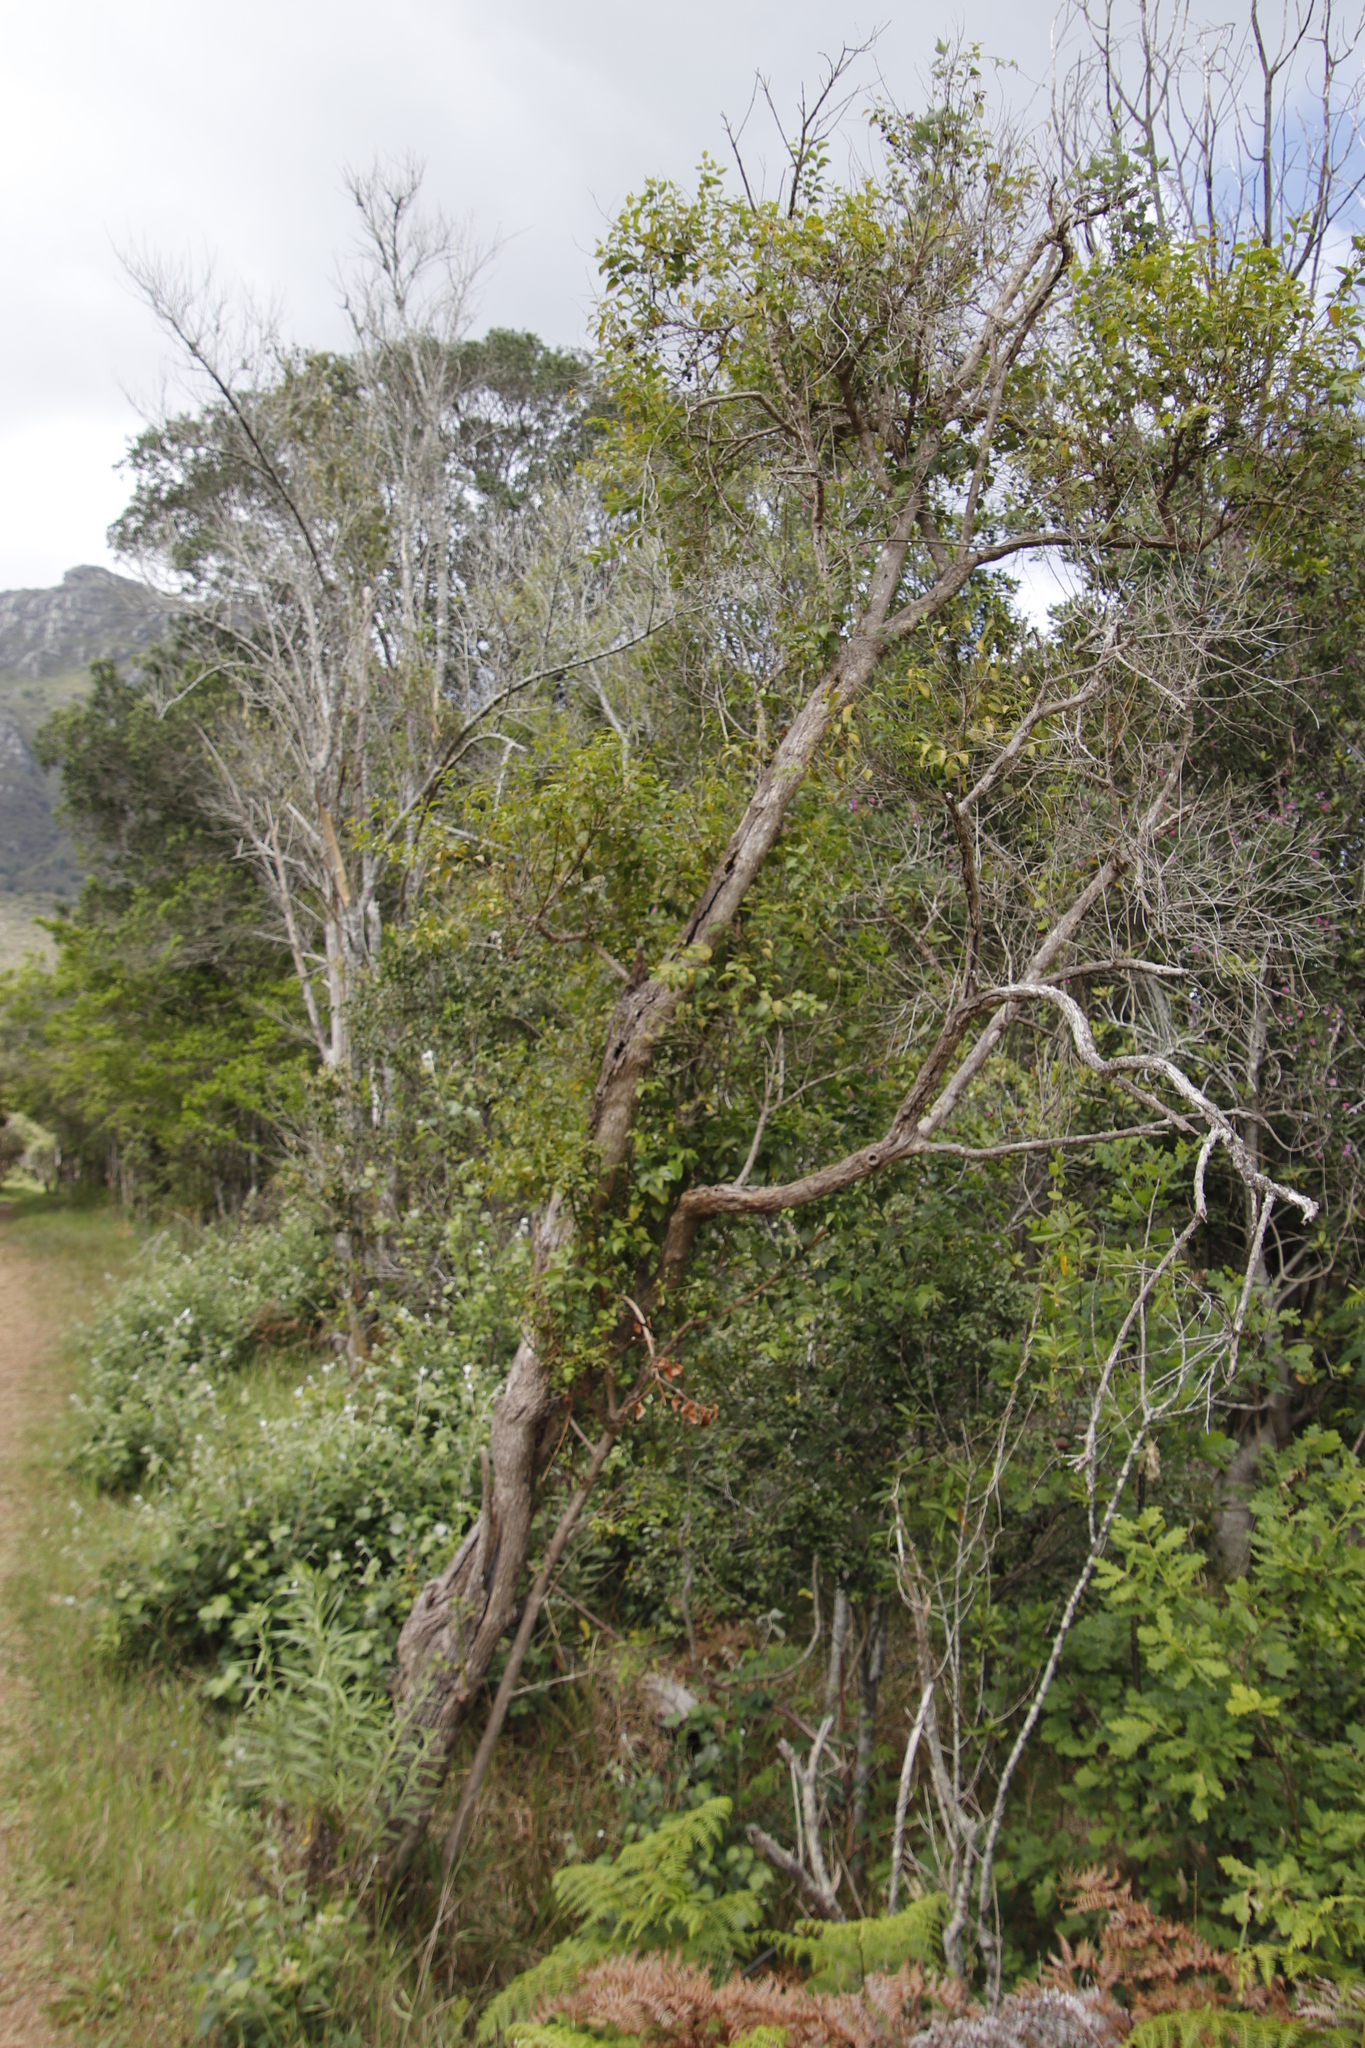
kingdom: Plantae
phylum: Tracheophyta
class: Magnoliopsida
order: Lamiales
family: Stilbaceae
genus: Halleria
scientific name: Halleria lucida
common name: Tree fuschia
